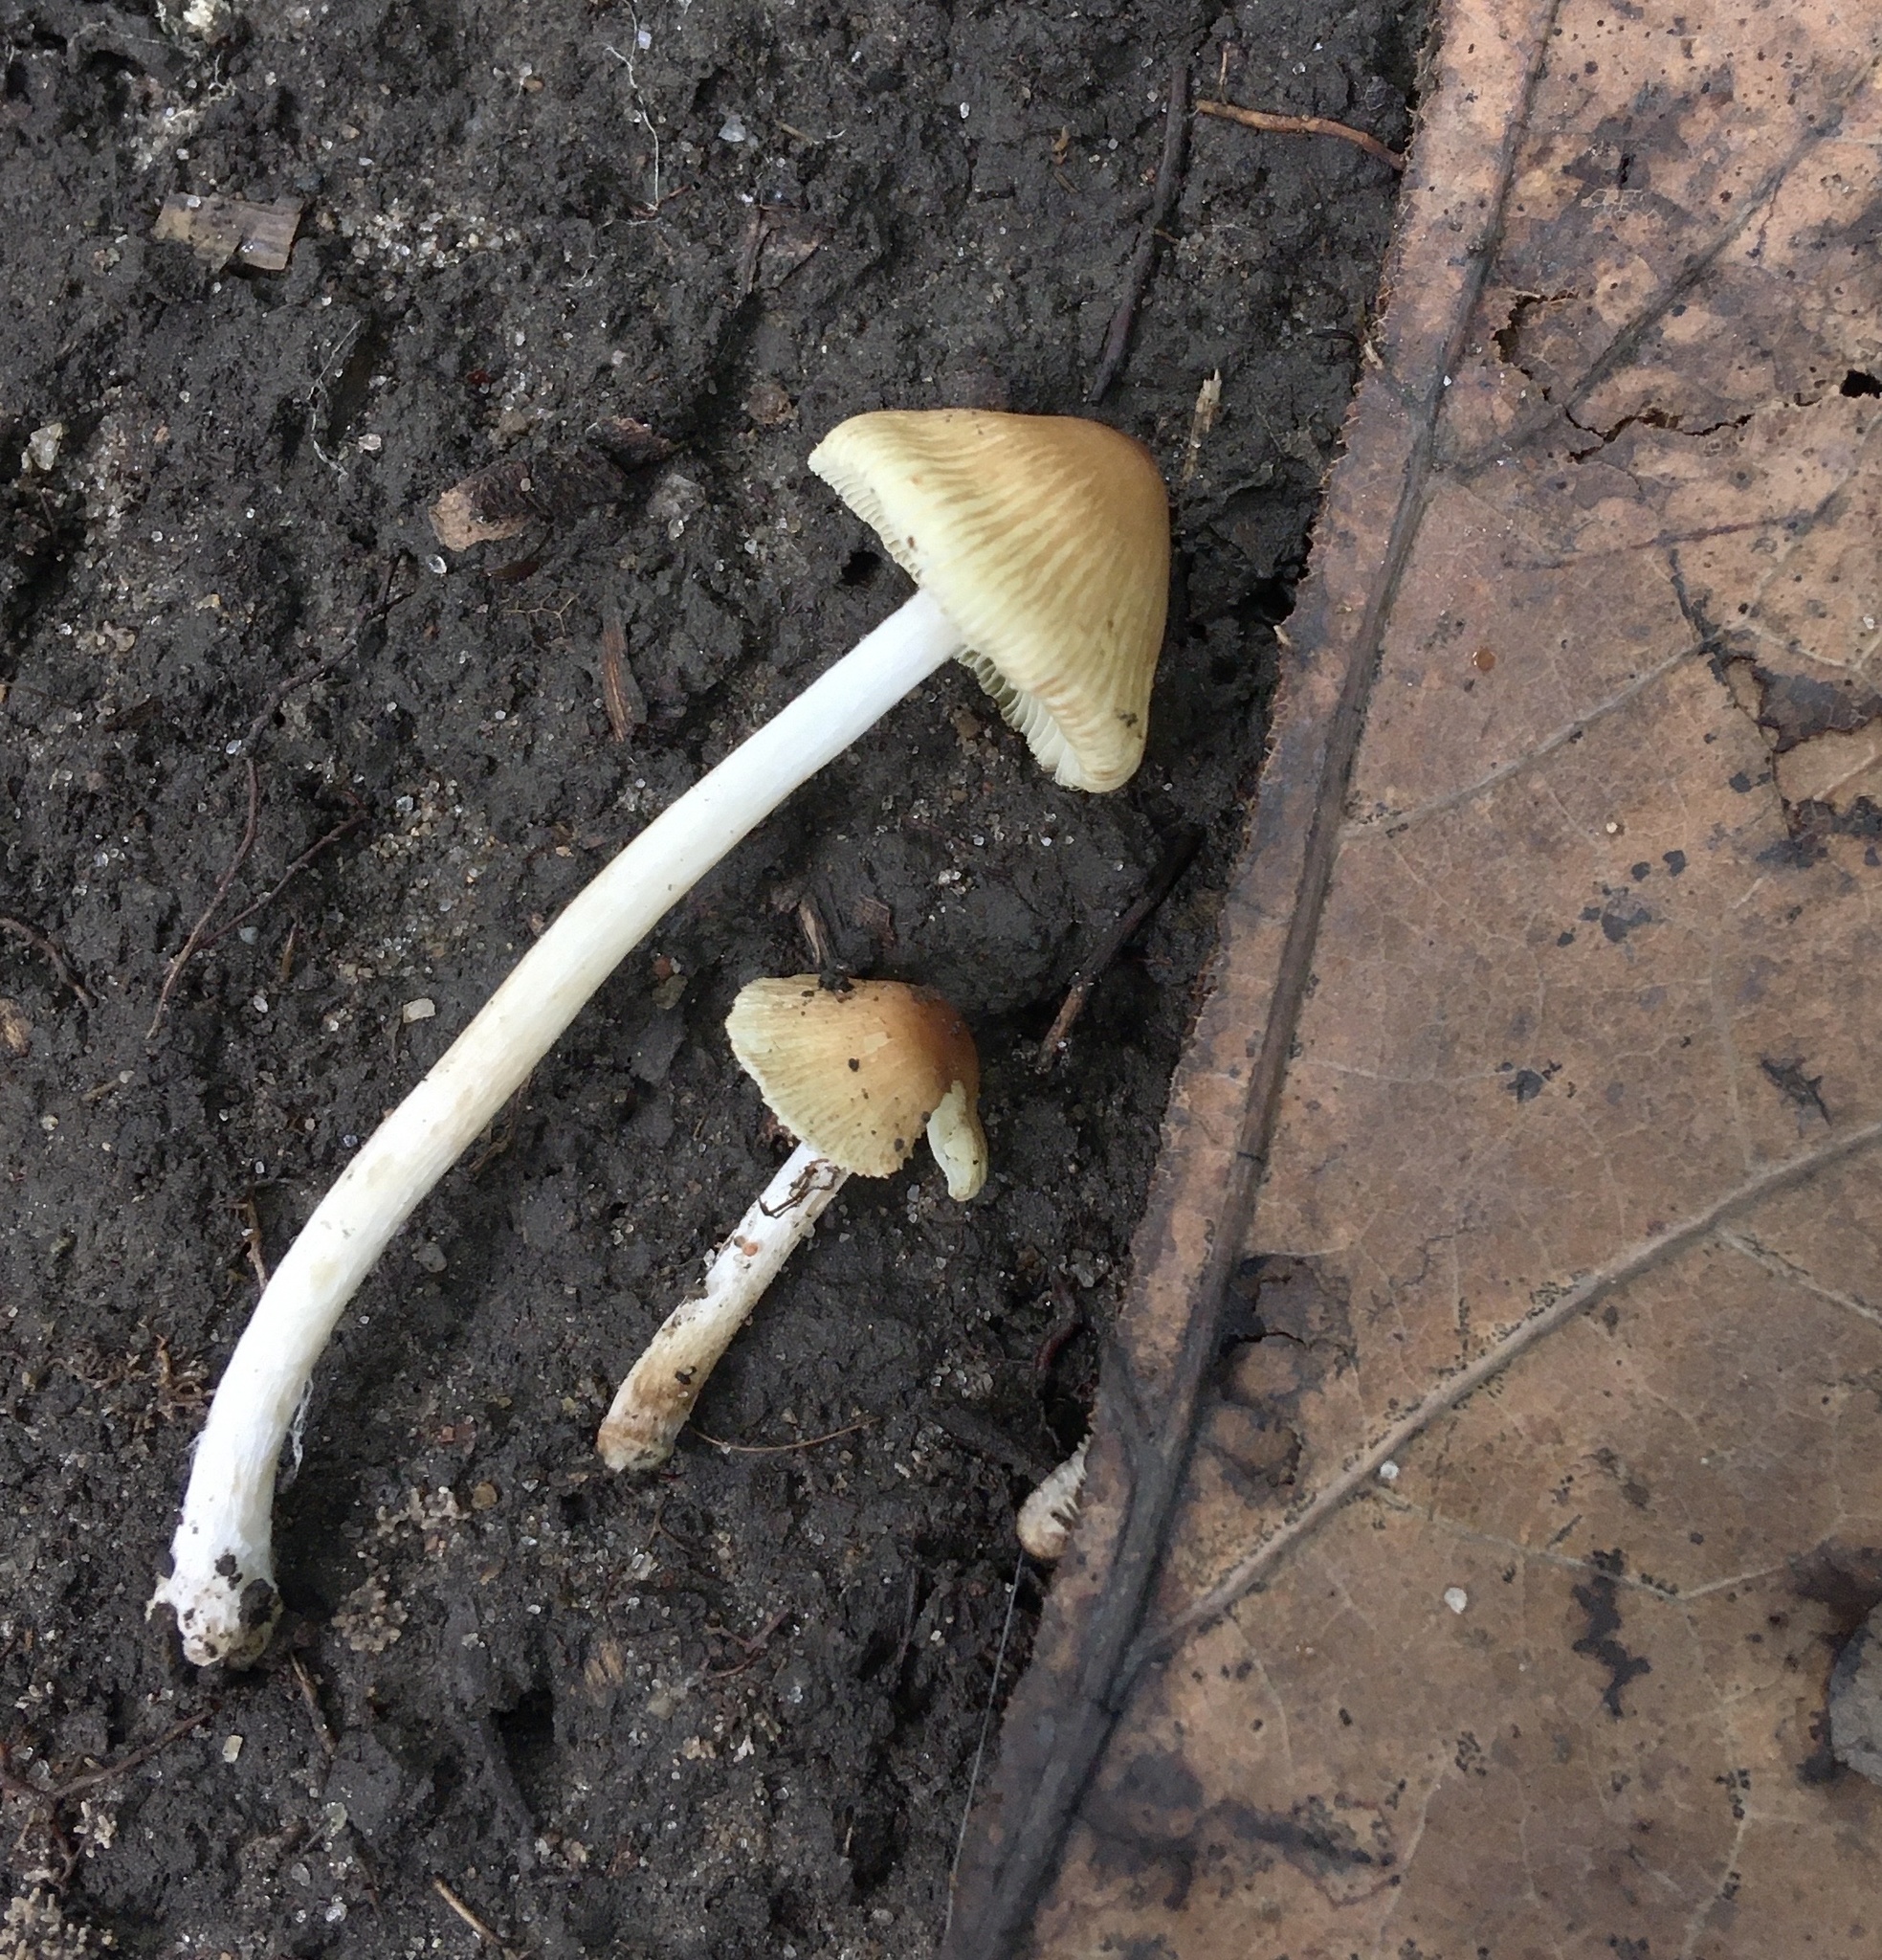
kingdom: Fungi
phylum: Basidiomycota
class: Agaricomycetes
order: Agaricales
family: Inocybaceae
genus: Pseudosperma
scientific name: Pseudosperma friabile
